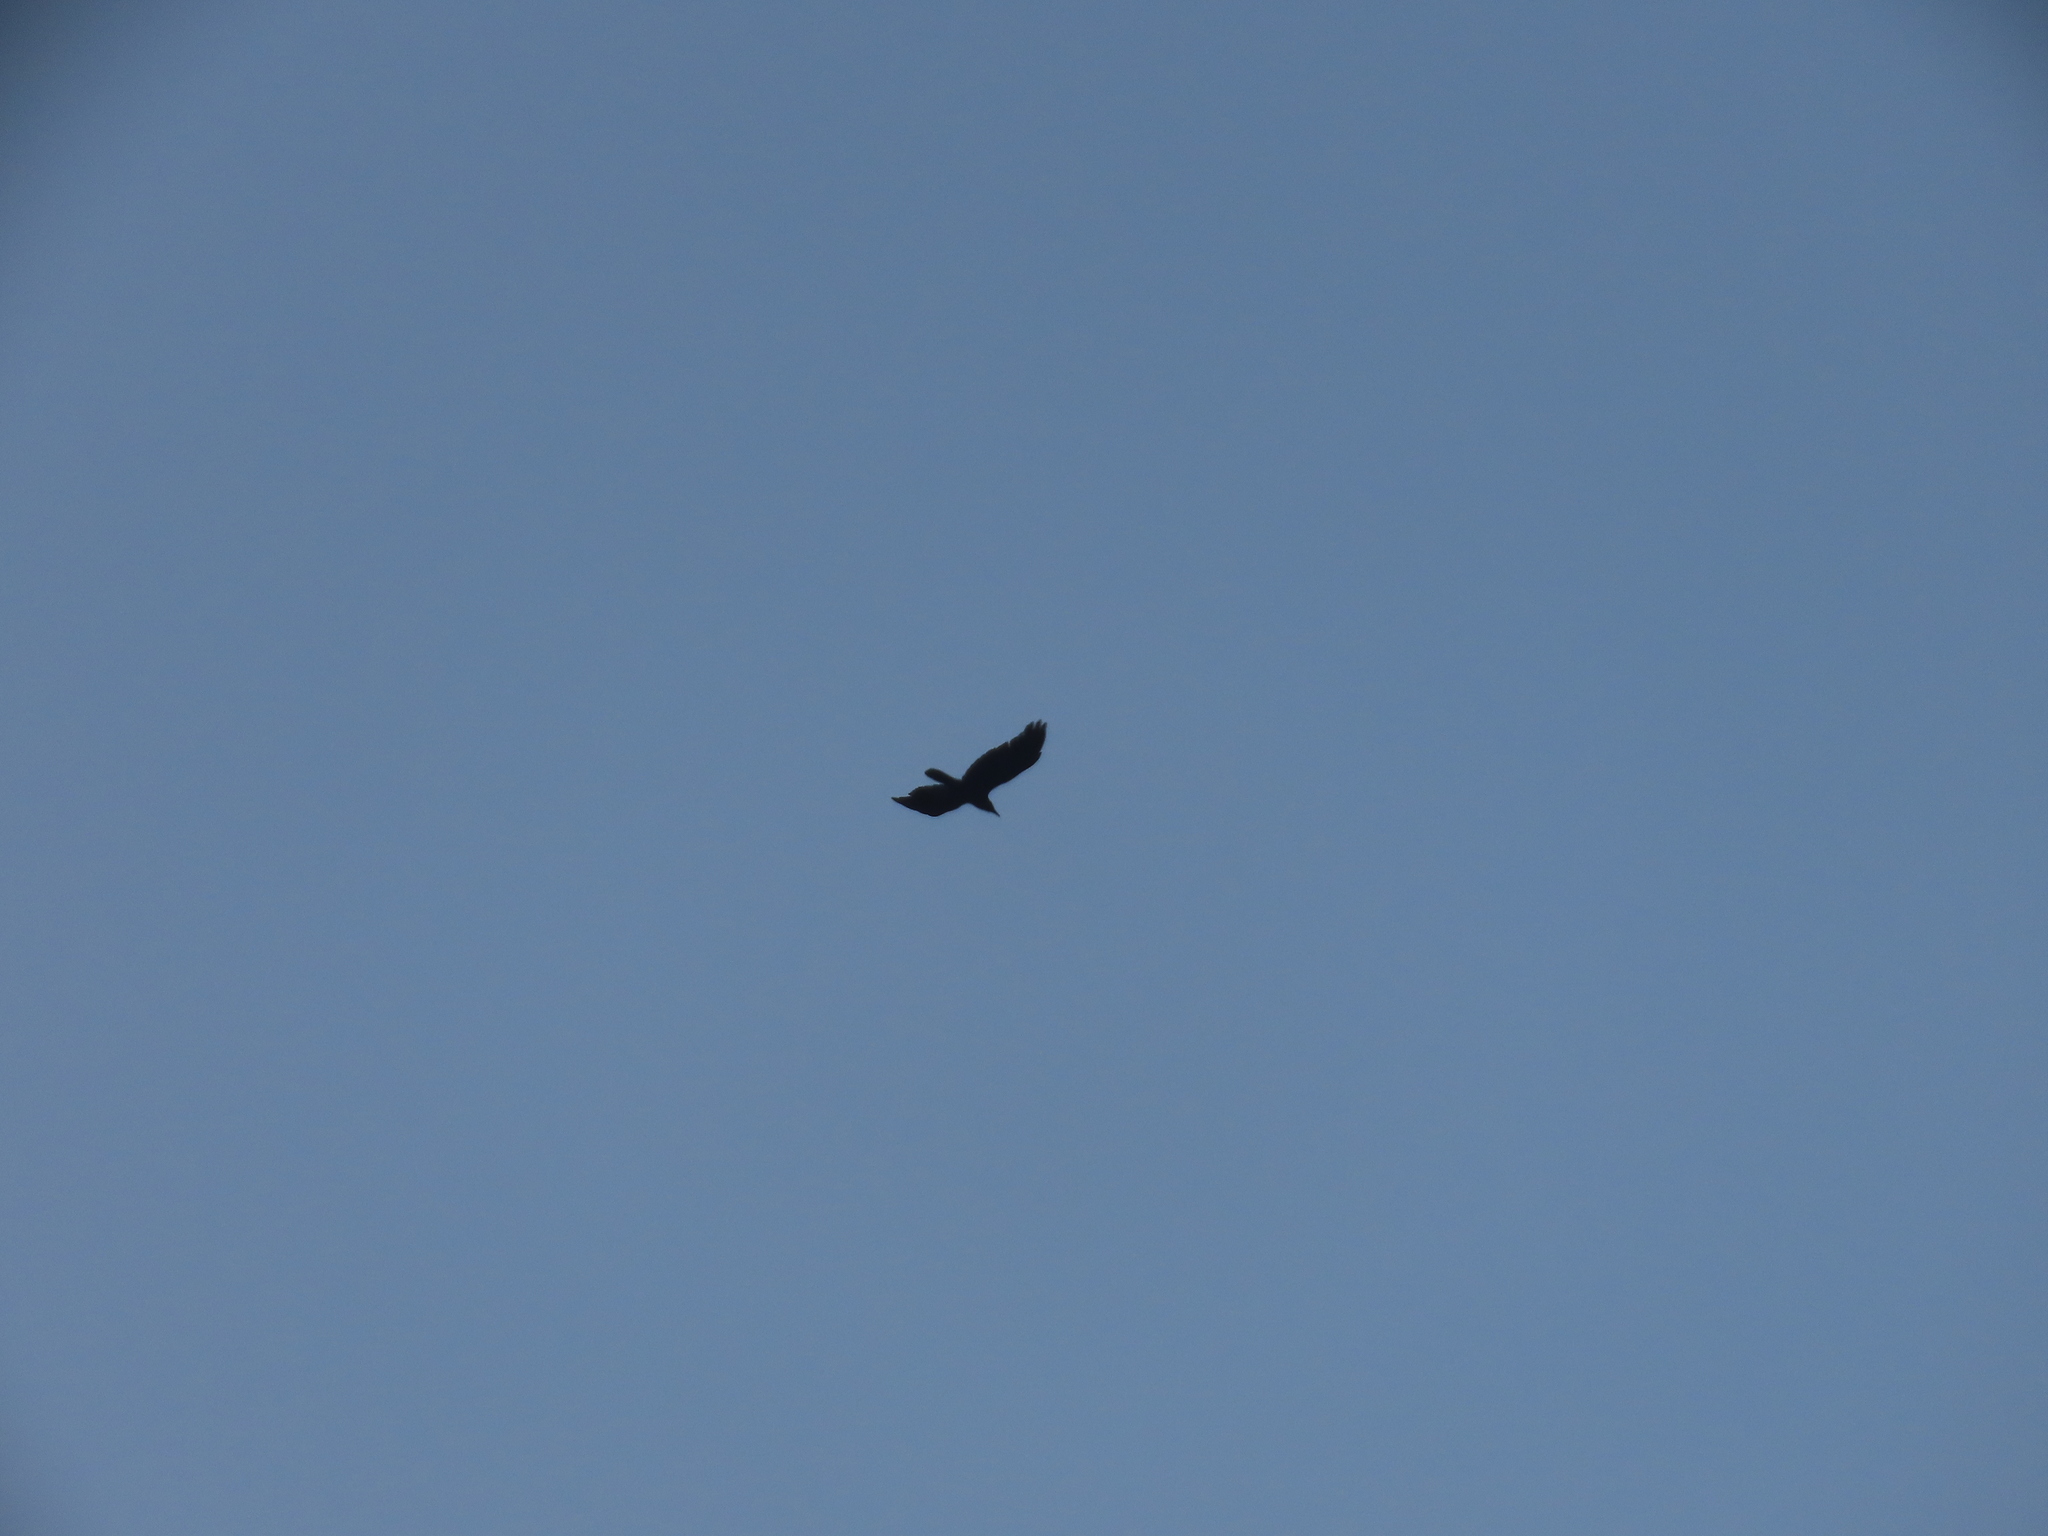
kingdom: Animalia
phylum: Chordata
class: Aves
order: Passeriformes
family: Corvidae
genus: Corvus
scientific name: Corvus splendens
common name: House crow
